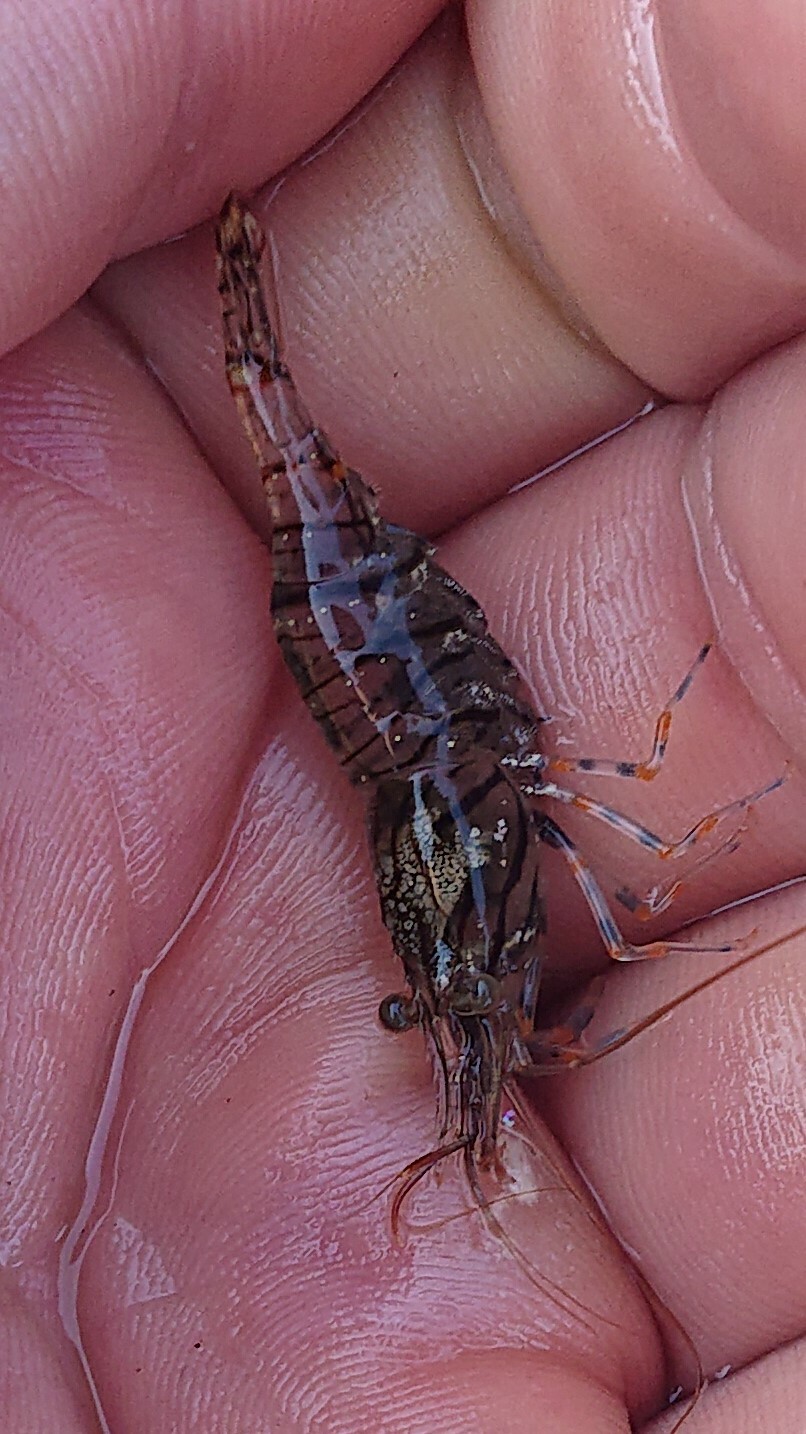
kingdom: Animalia
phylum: Arthropoda
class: Malacostraca
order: Decapoda
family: Palaemonidae
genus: Palaemon
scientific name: Palaemon elegans
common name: Grass prawm
